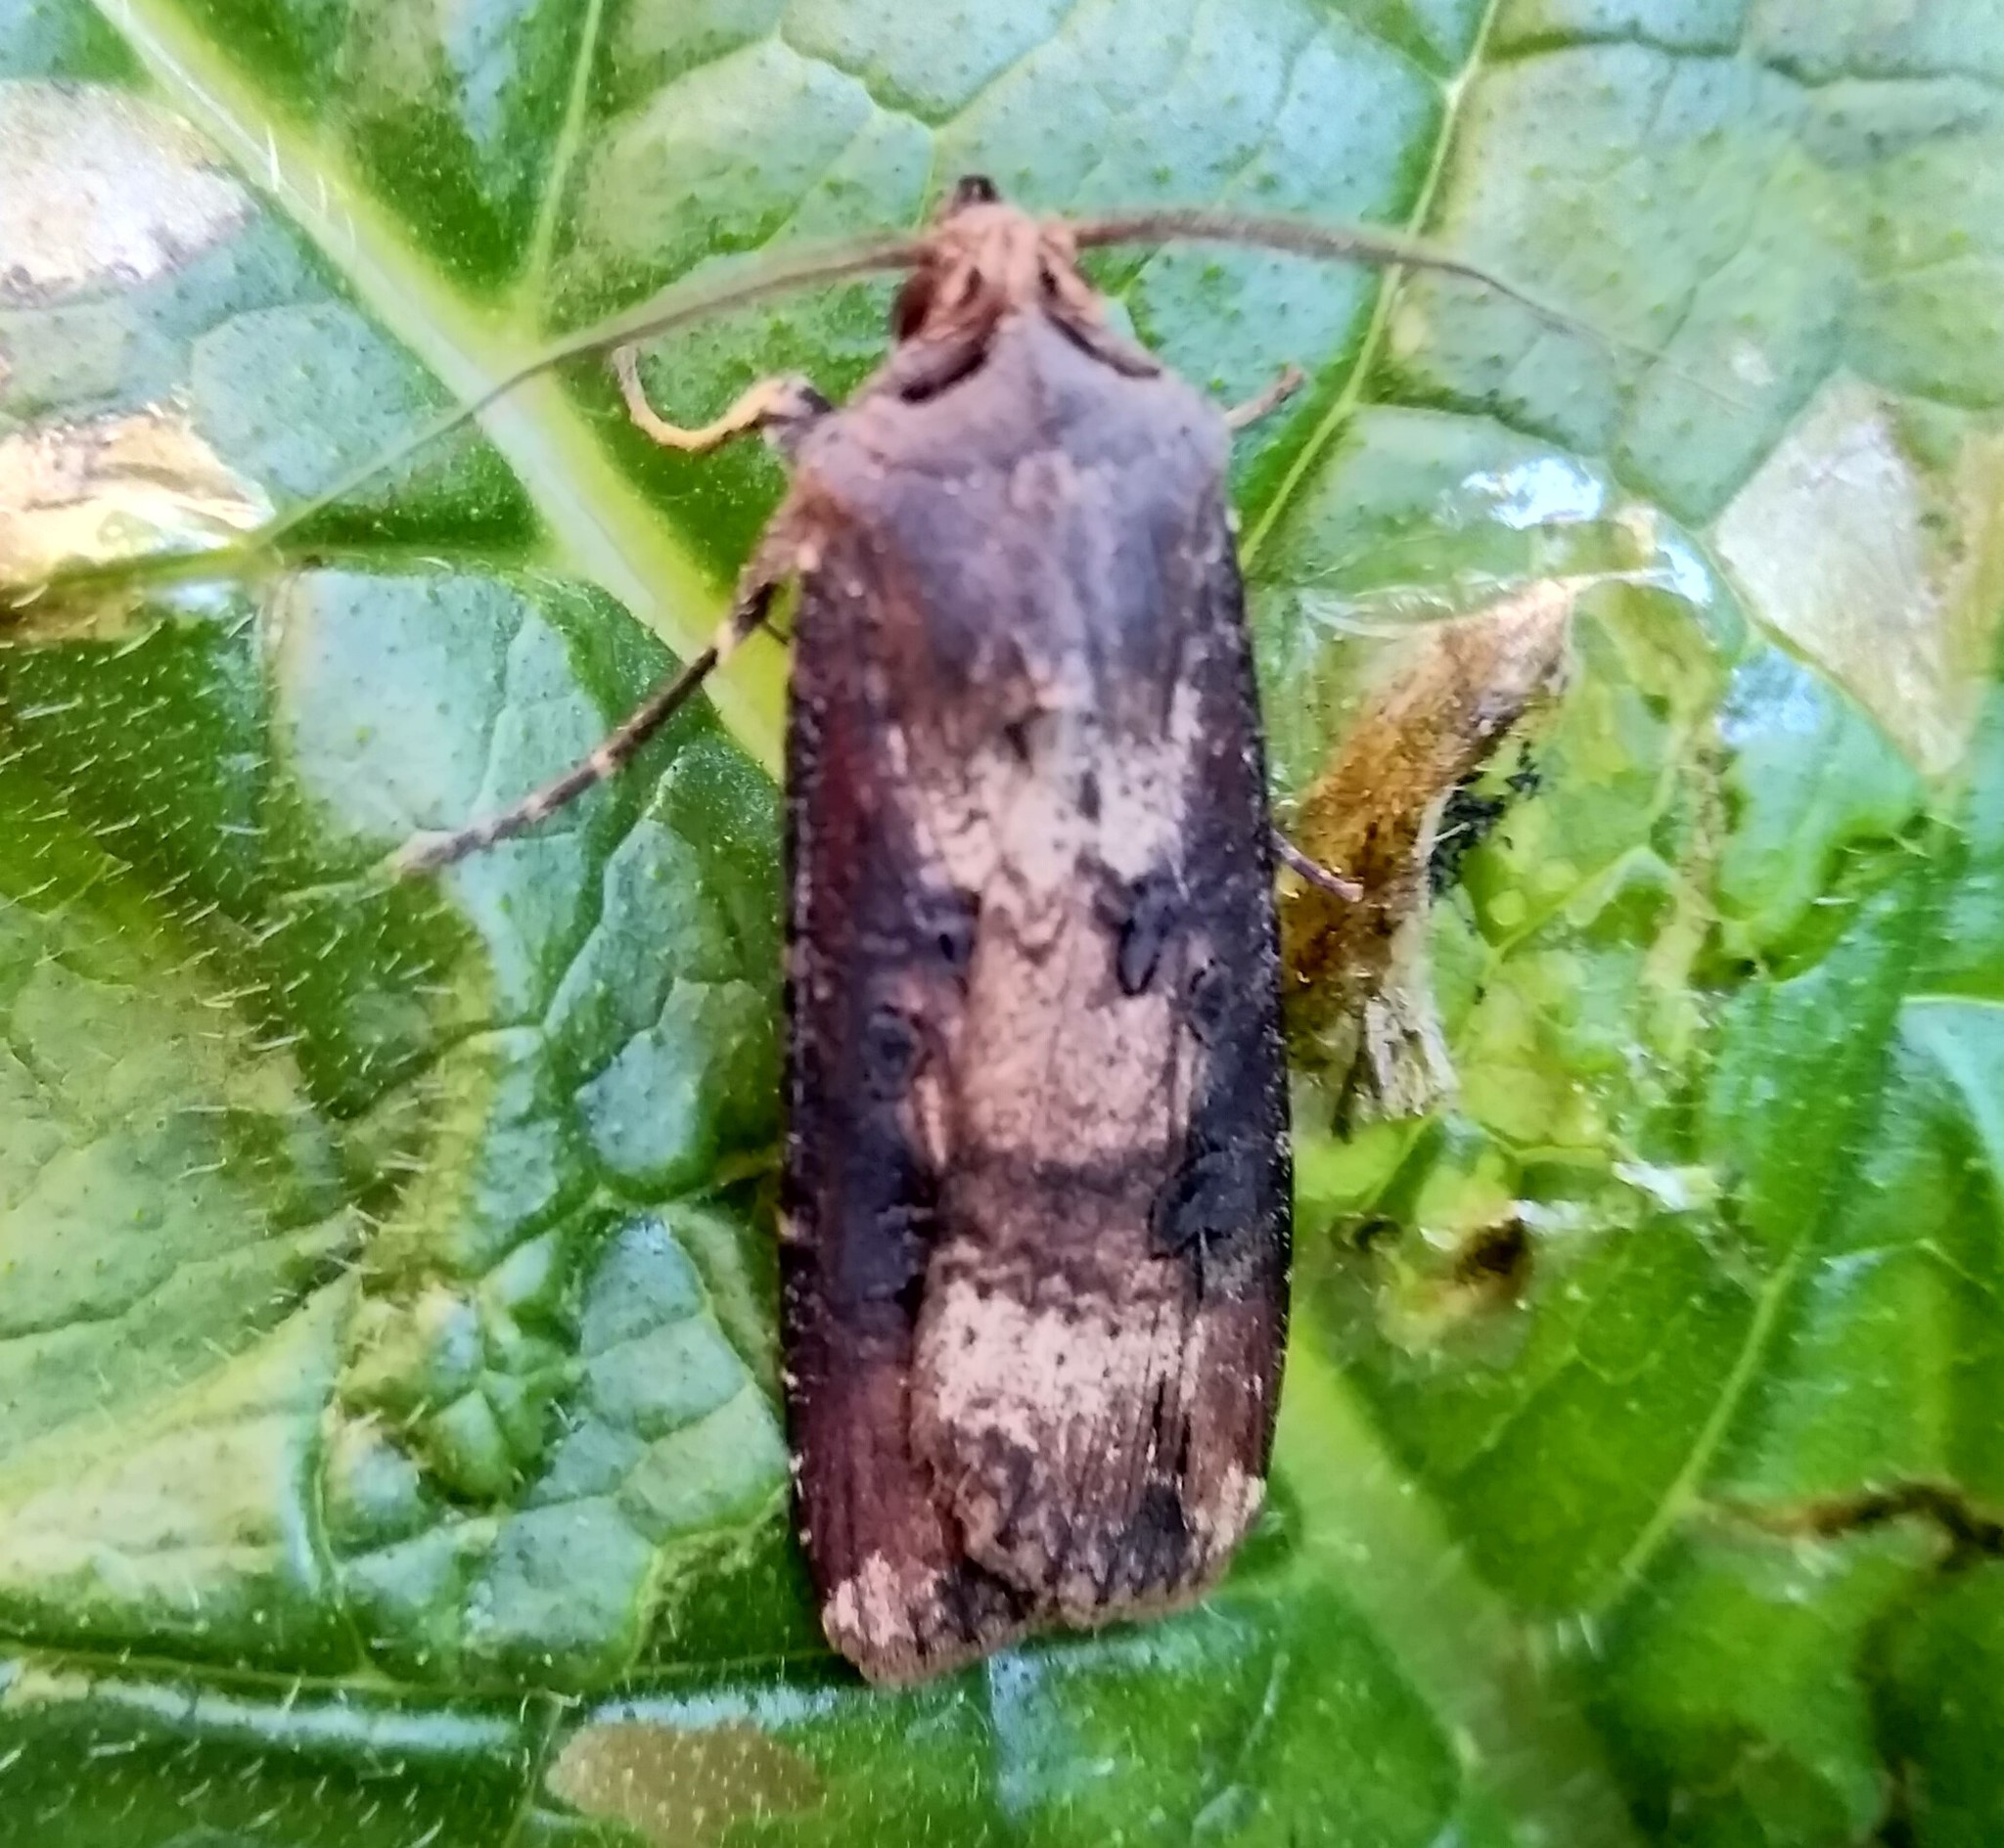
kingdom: Animalia
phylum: Arthropoda
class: Insecta
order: Lepidoptera
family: Noctuidae
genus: Agrotis
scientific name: Agrotis ipsilon
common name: Dark sword-grass
